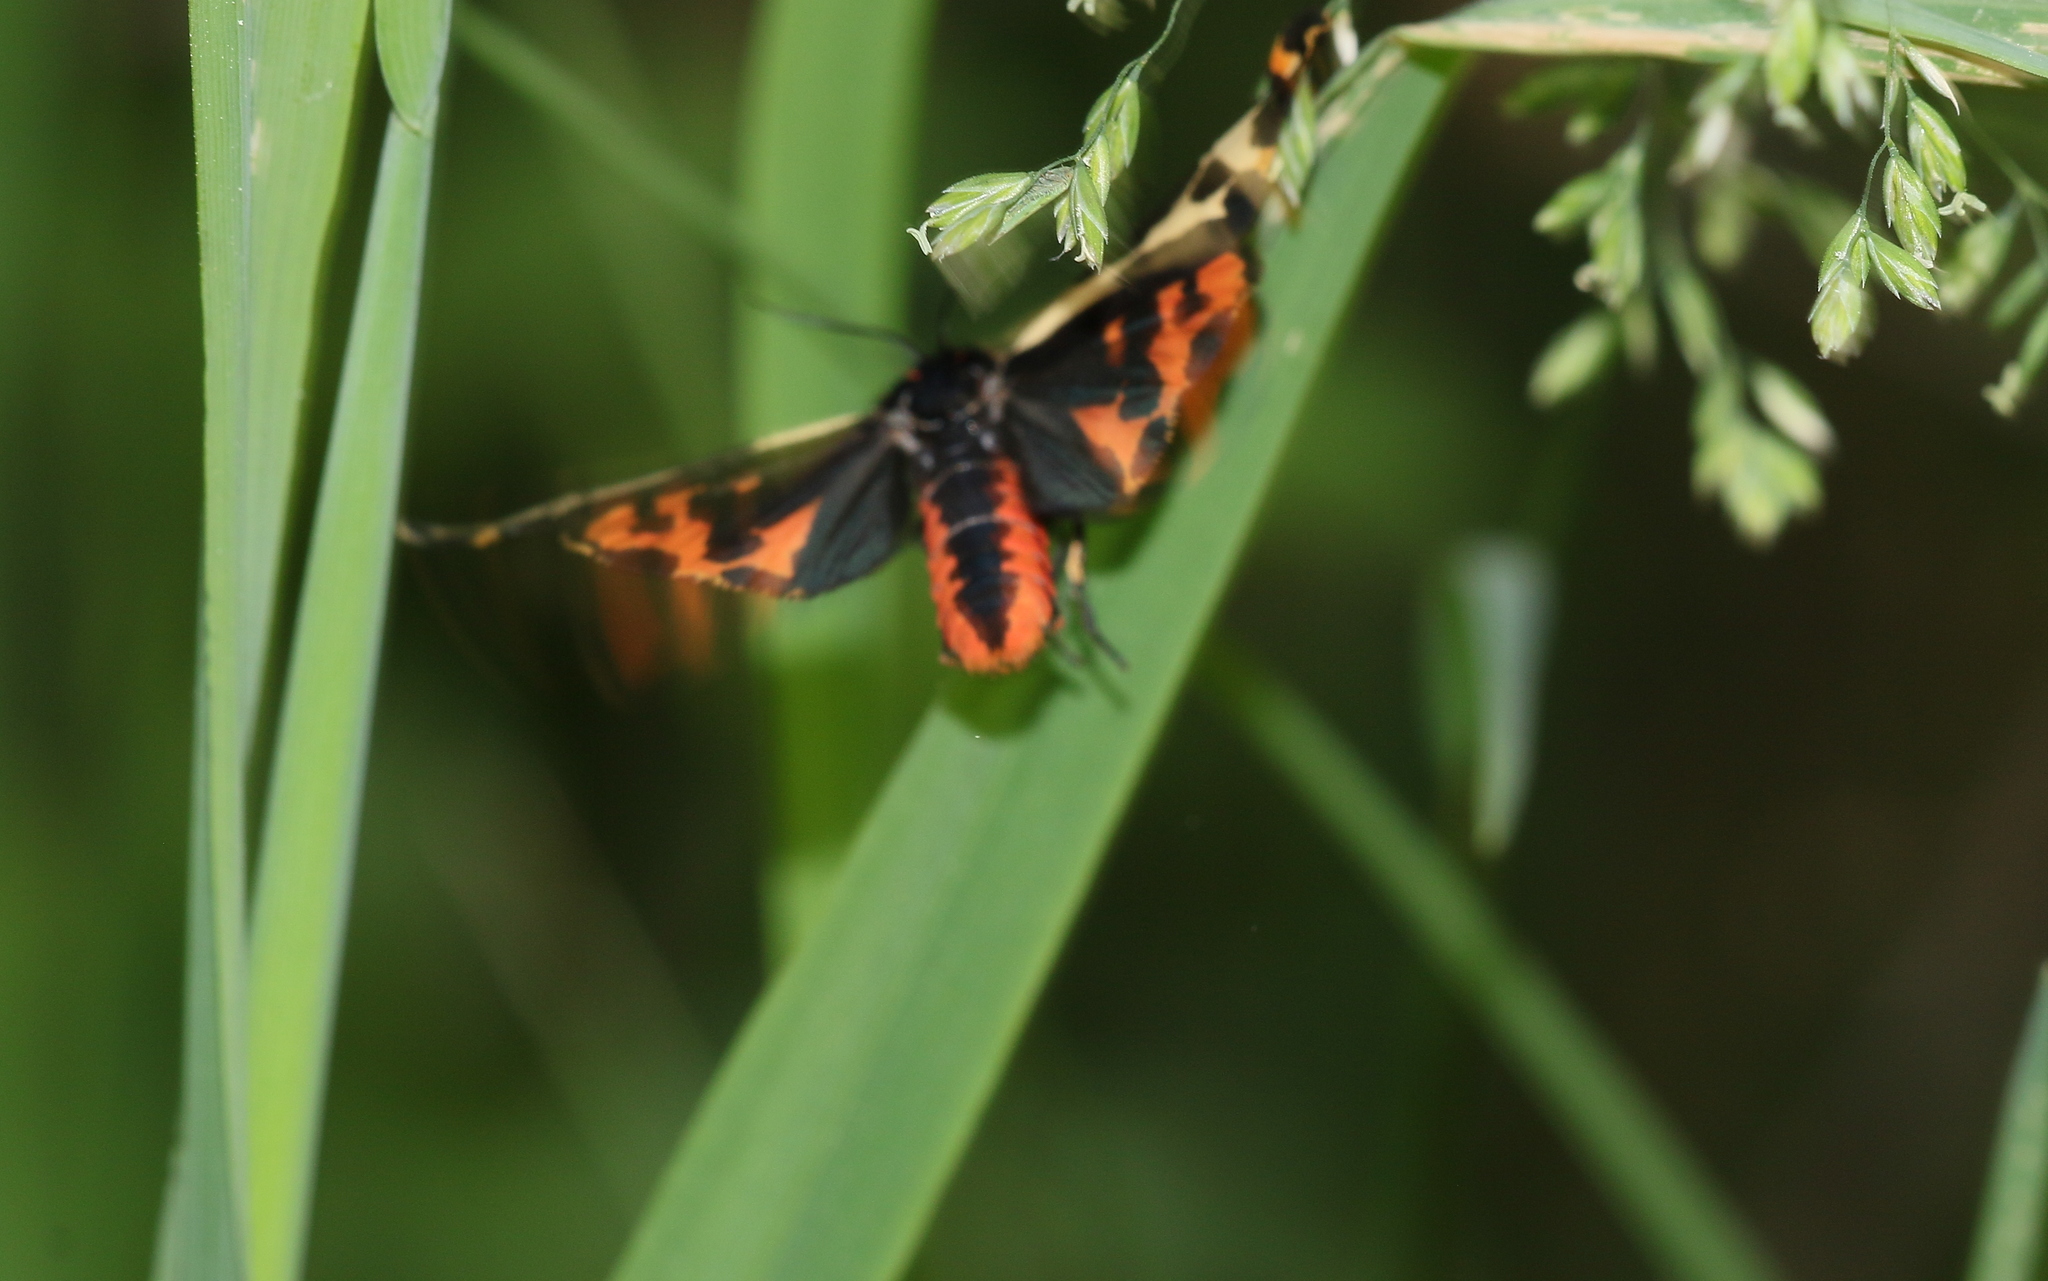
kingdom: Animalia
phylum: Arthropoda
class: Insecta
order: Lepidoptera
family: Erebidae
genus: Parasemia
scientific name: Parasemia plantaginis
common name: Wood tiger
